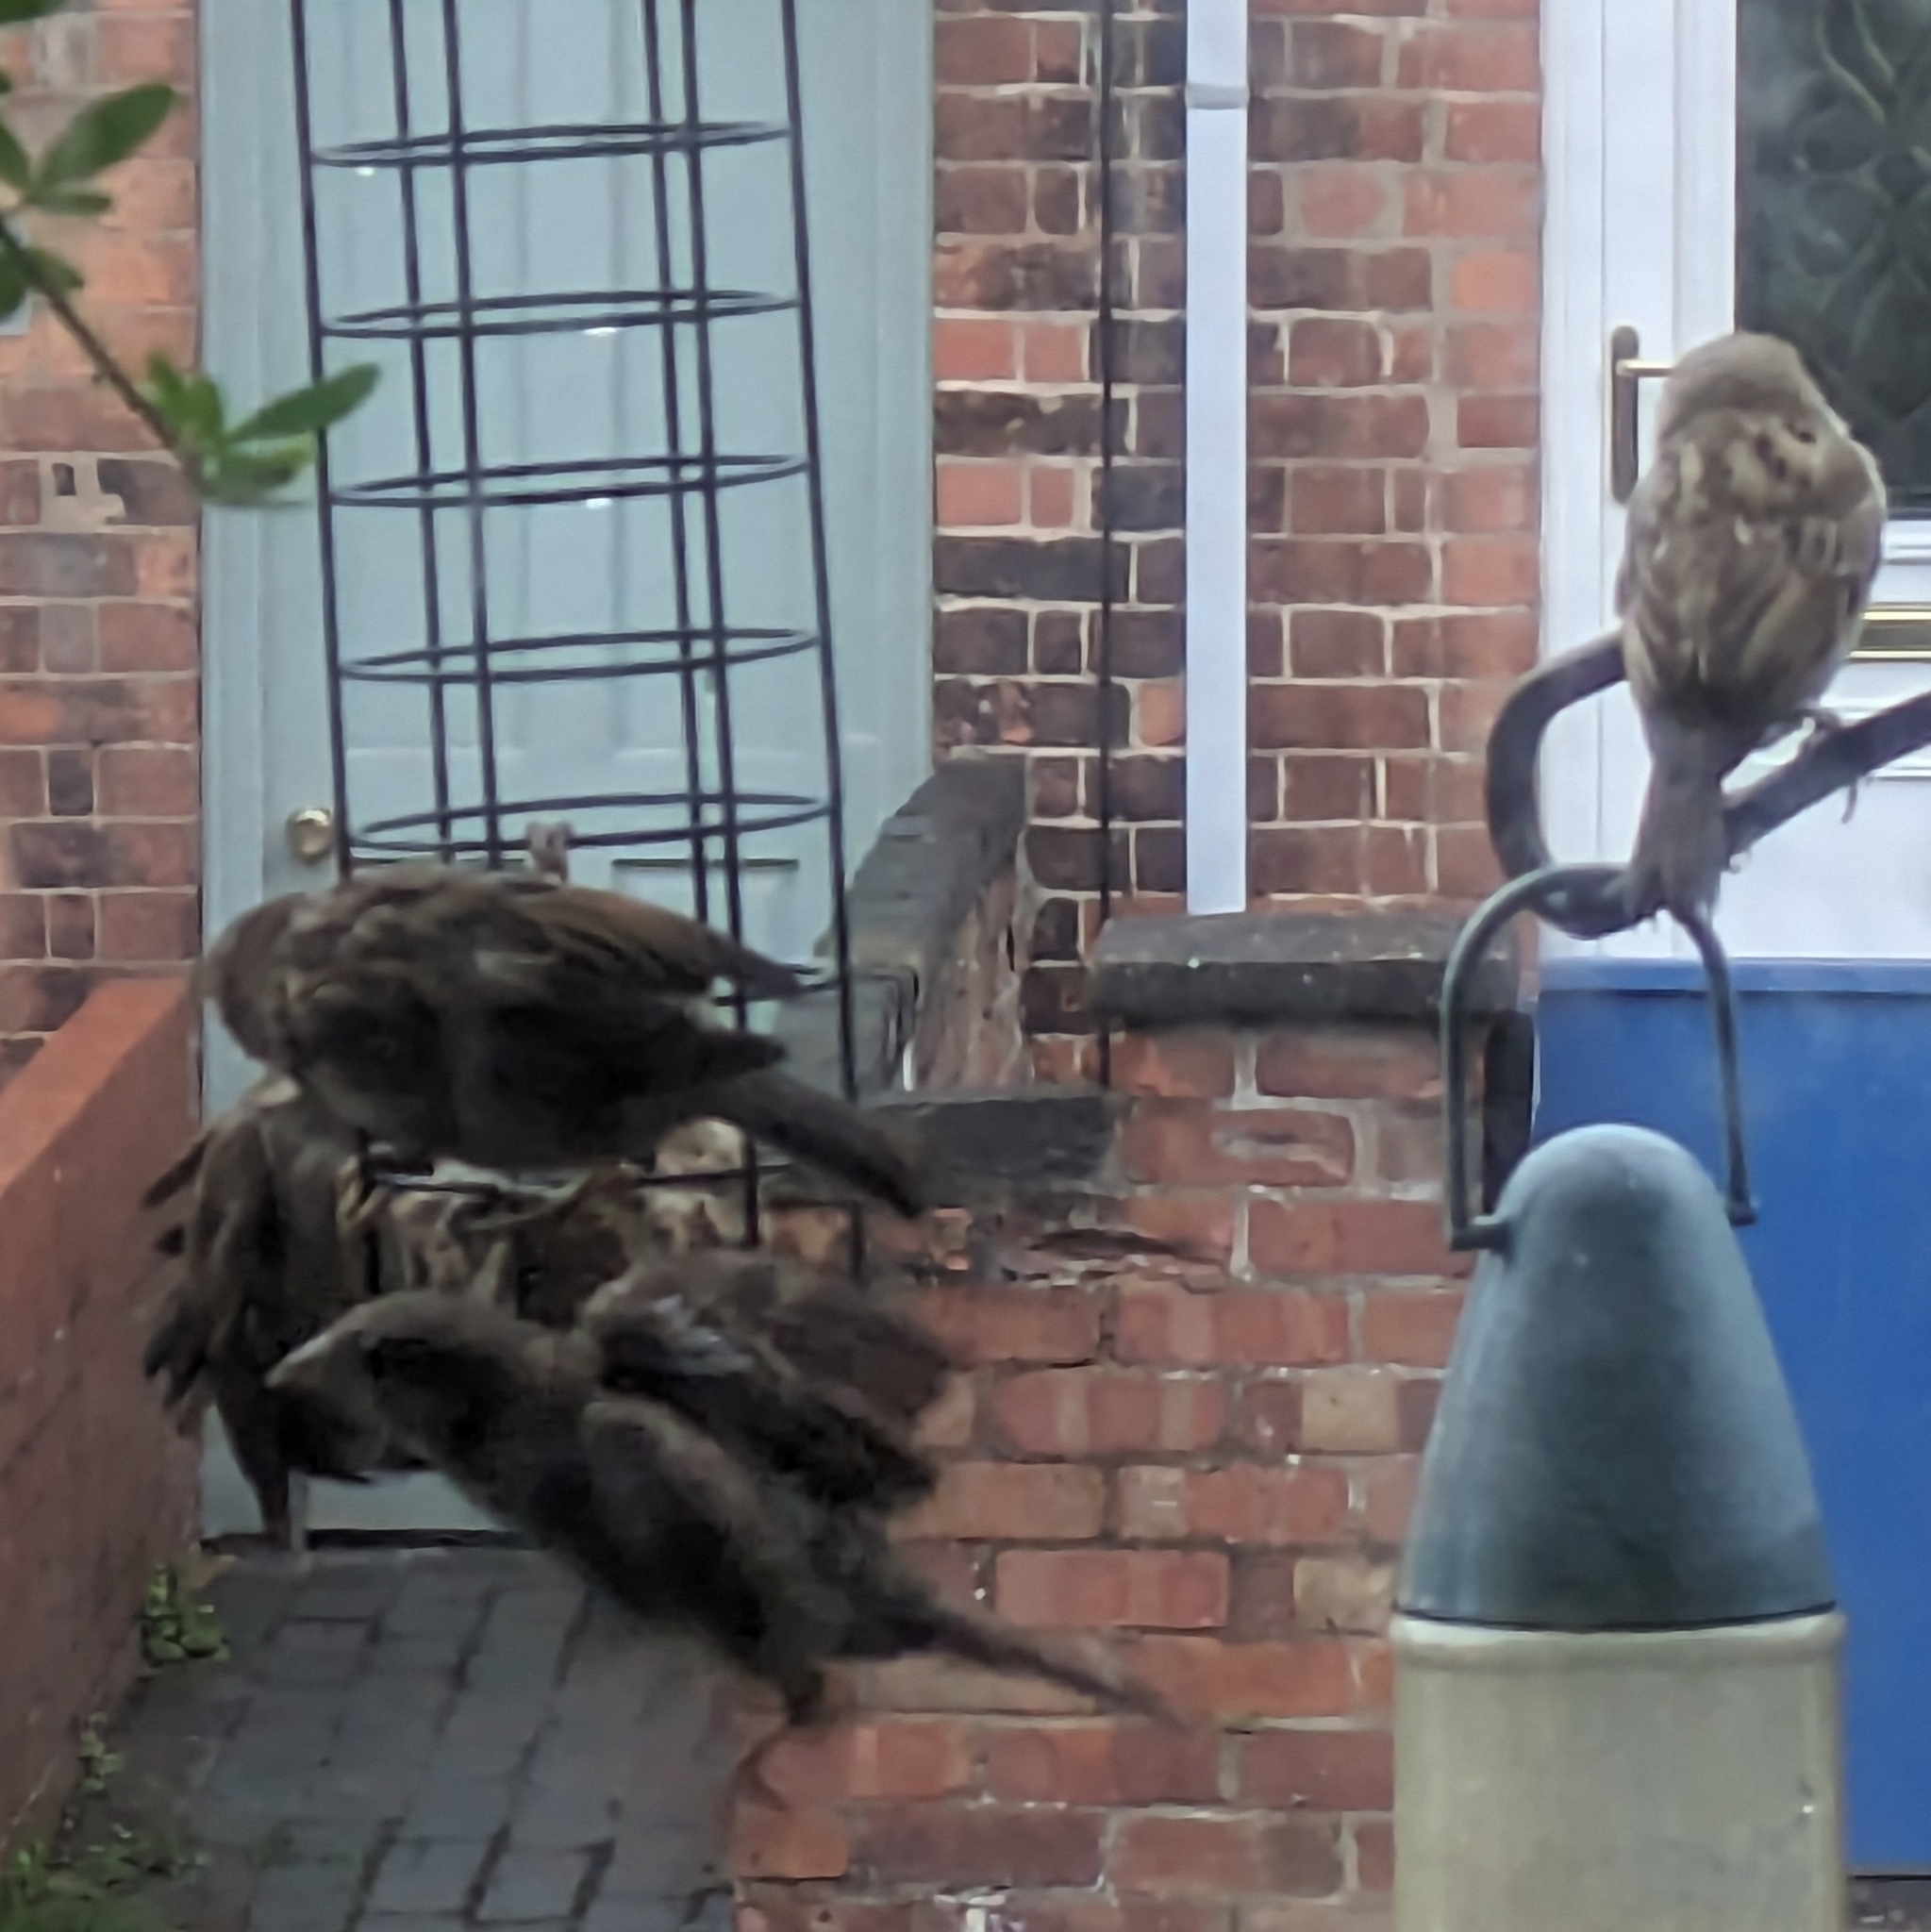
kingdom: Animalia
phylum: Chordata
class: Aves
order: Passeriformes
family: Passeridae
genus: Passer
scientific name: Passer domesticus
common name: House sparrow
